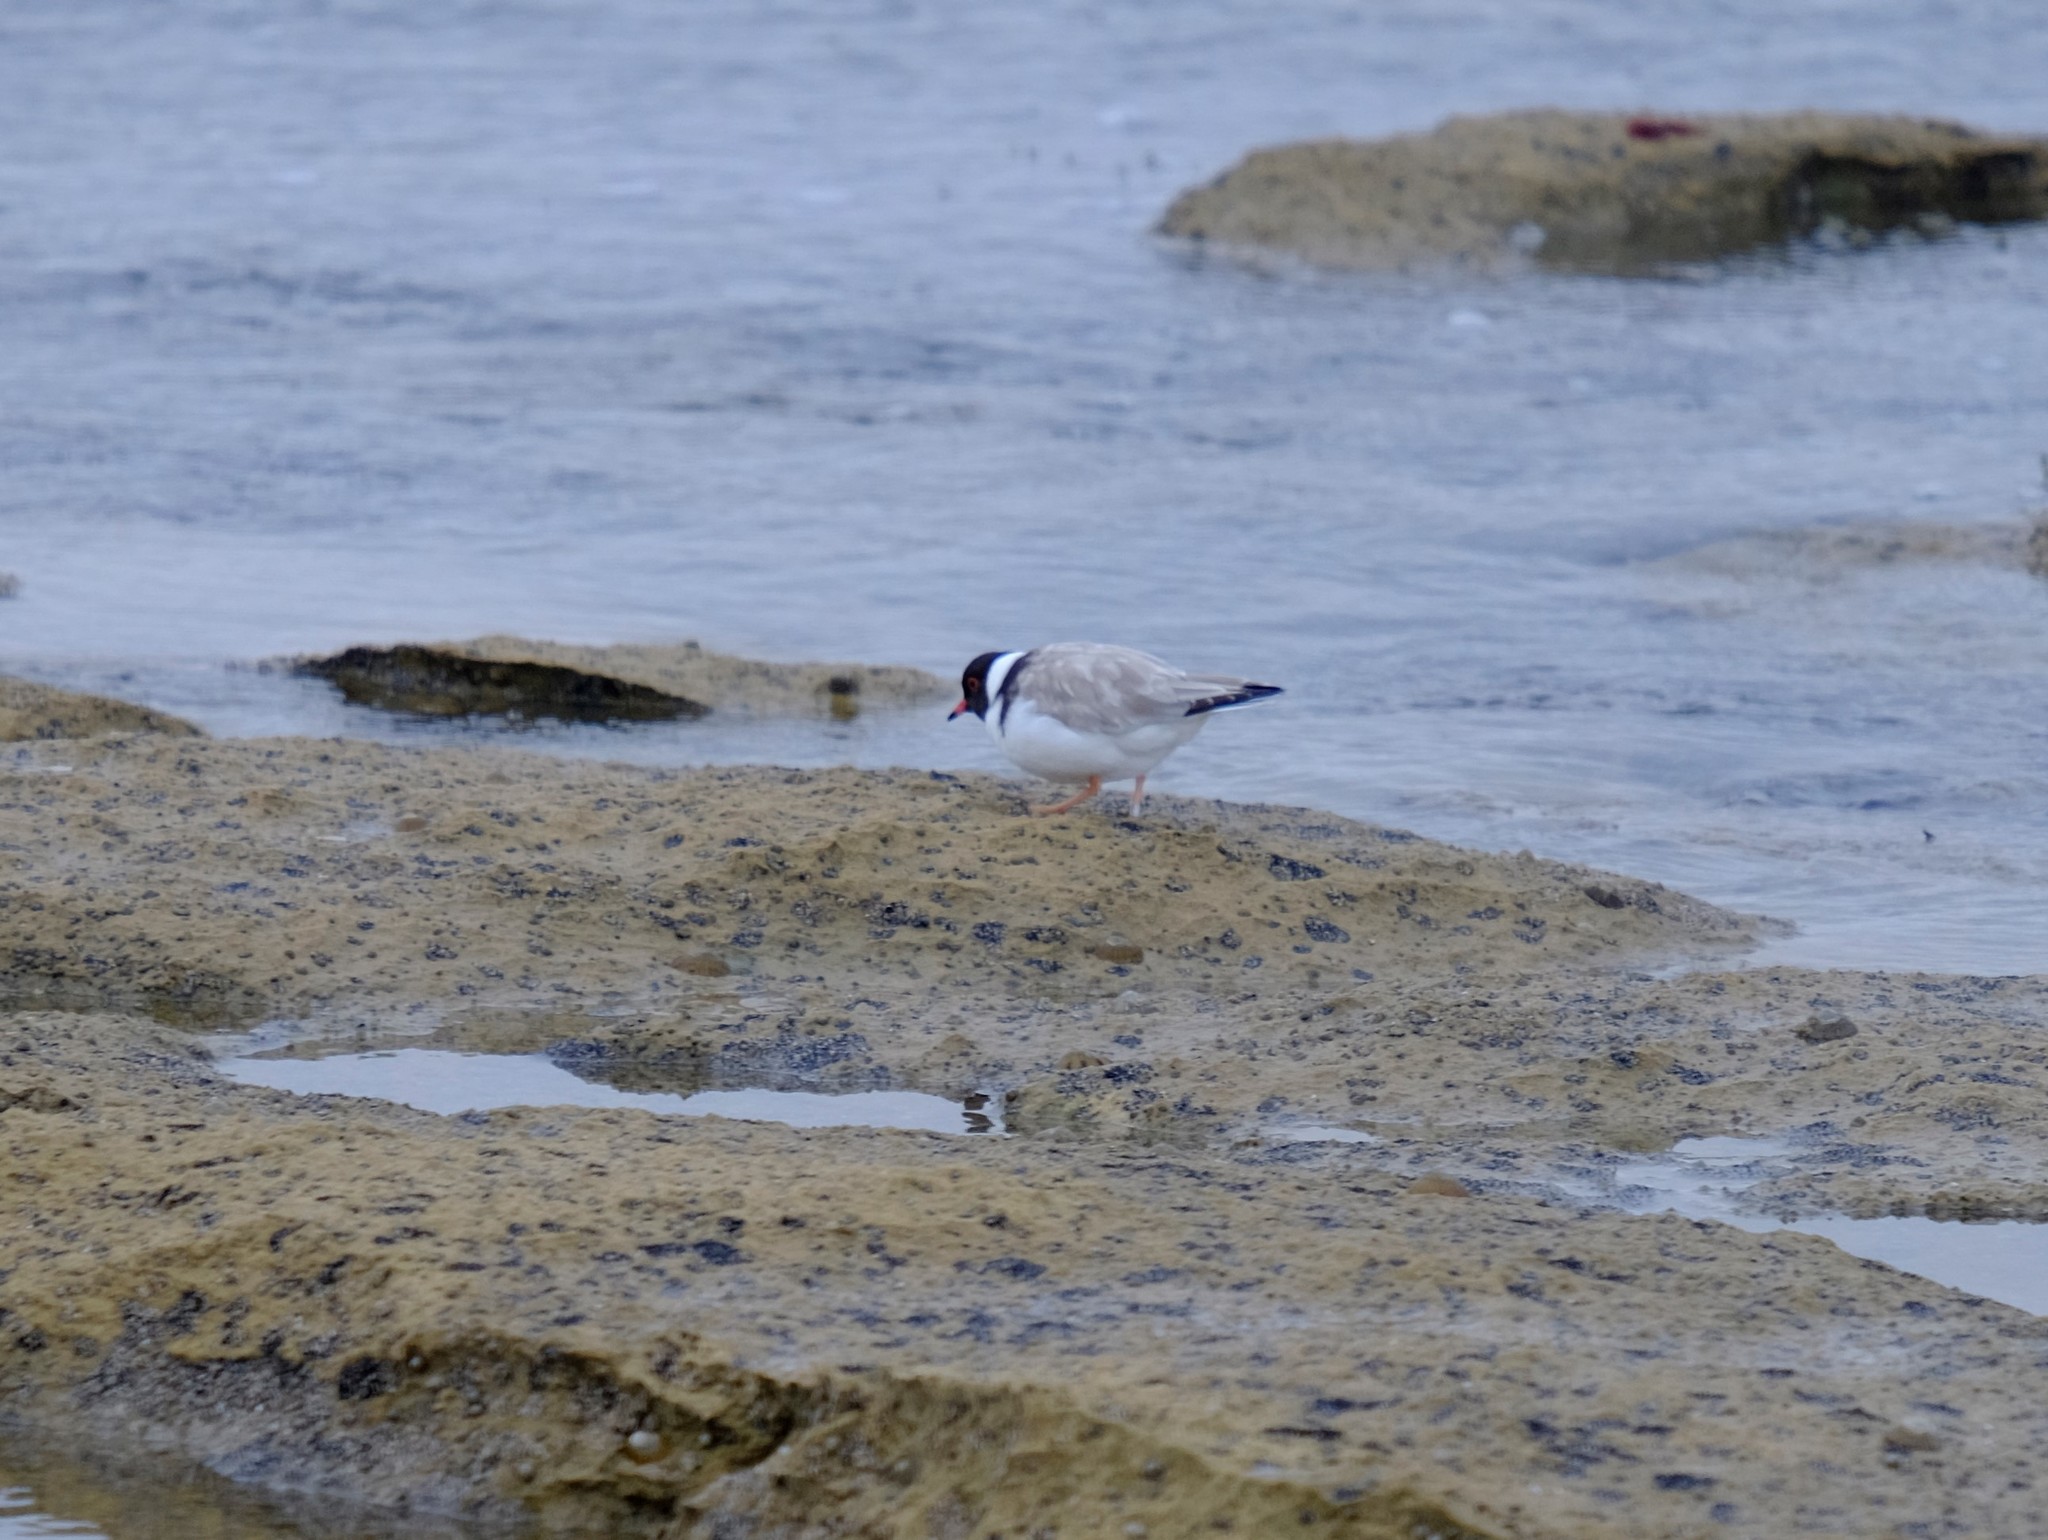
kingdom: Animalia
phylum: Chordata
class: Aves
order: Charadriiformes
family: Charadriidae
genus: Thinornis
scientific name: Thinornis cucullatus
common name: Hooded dotterel
